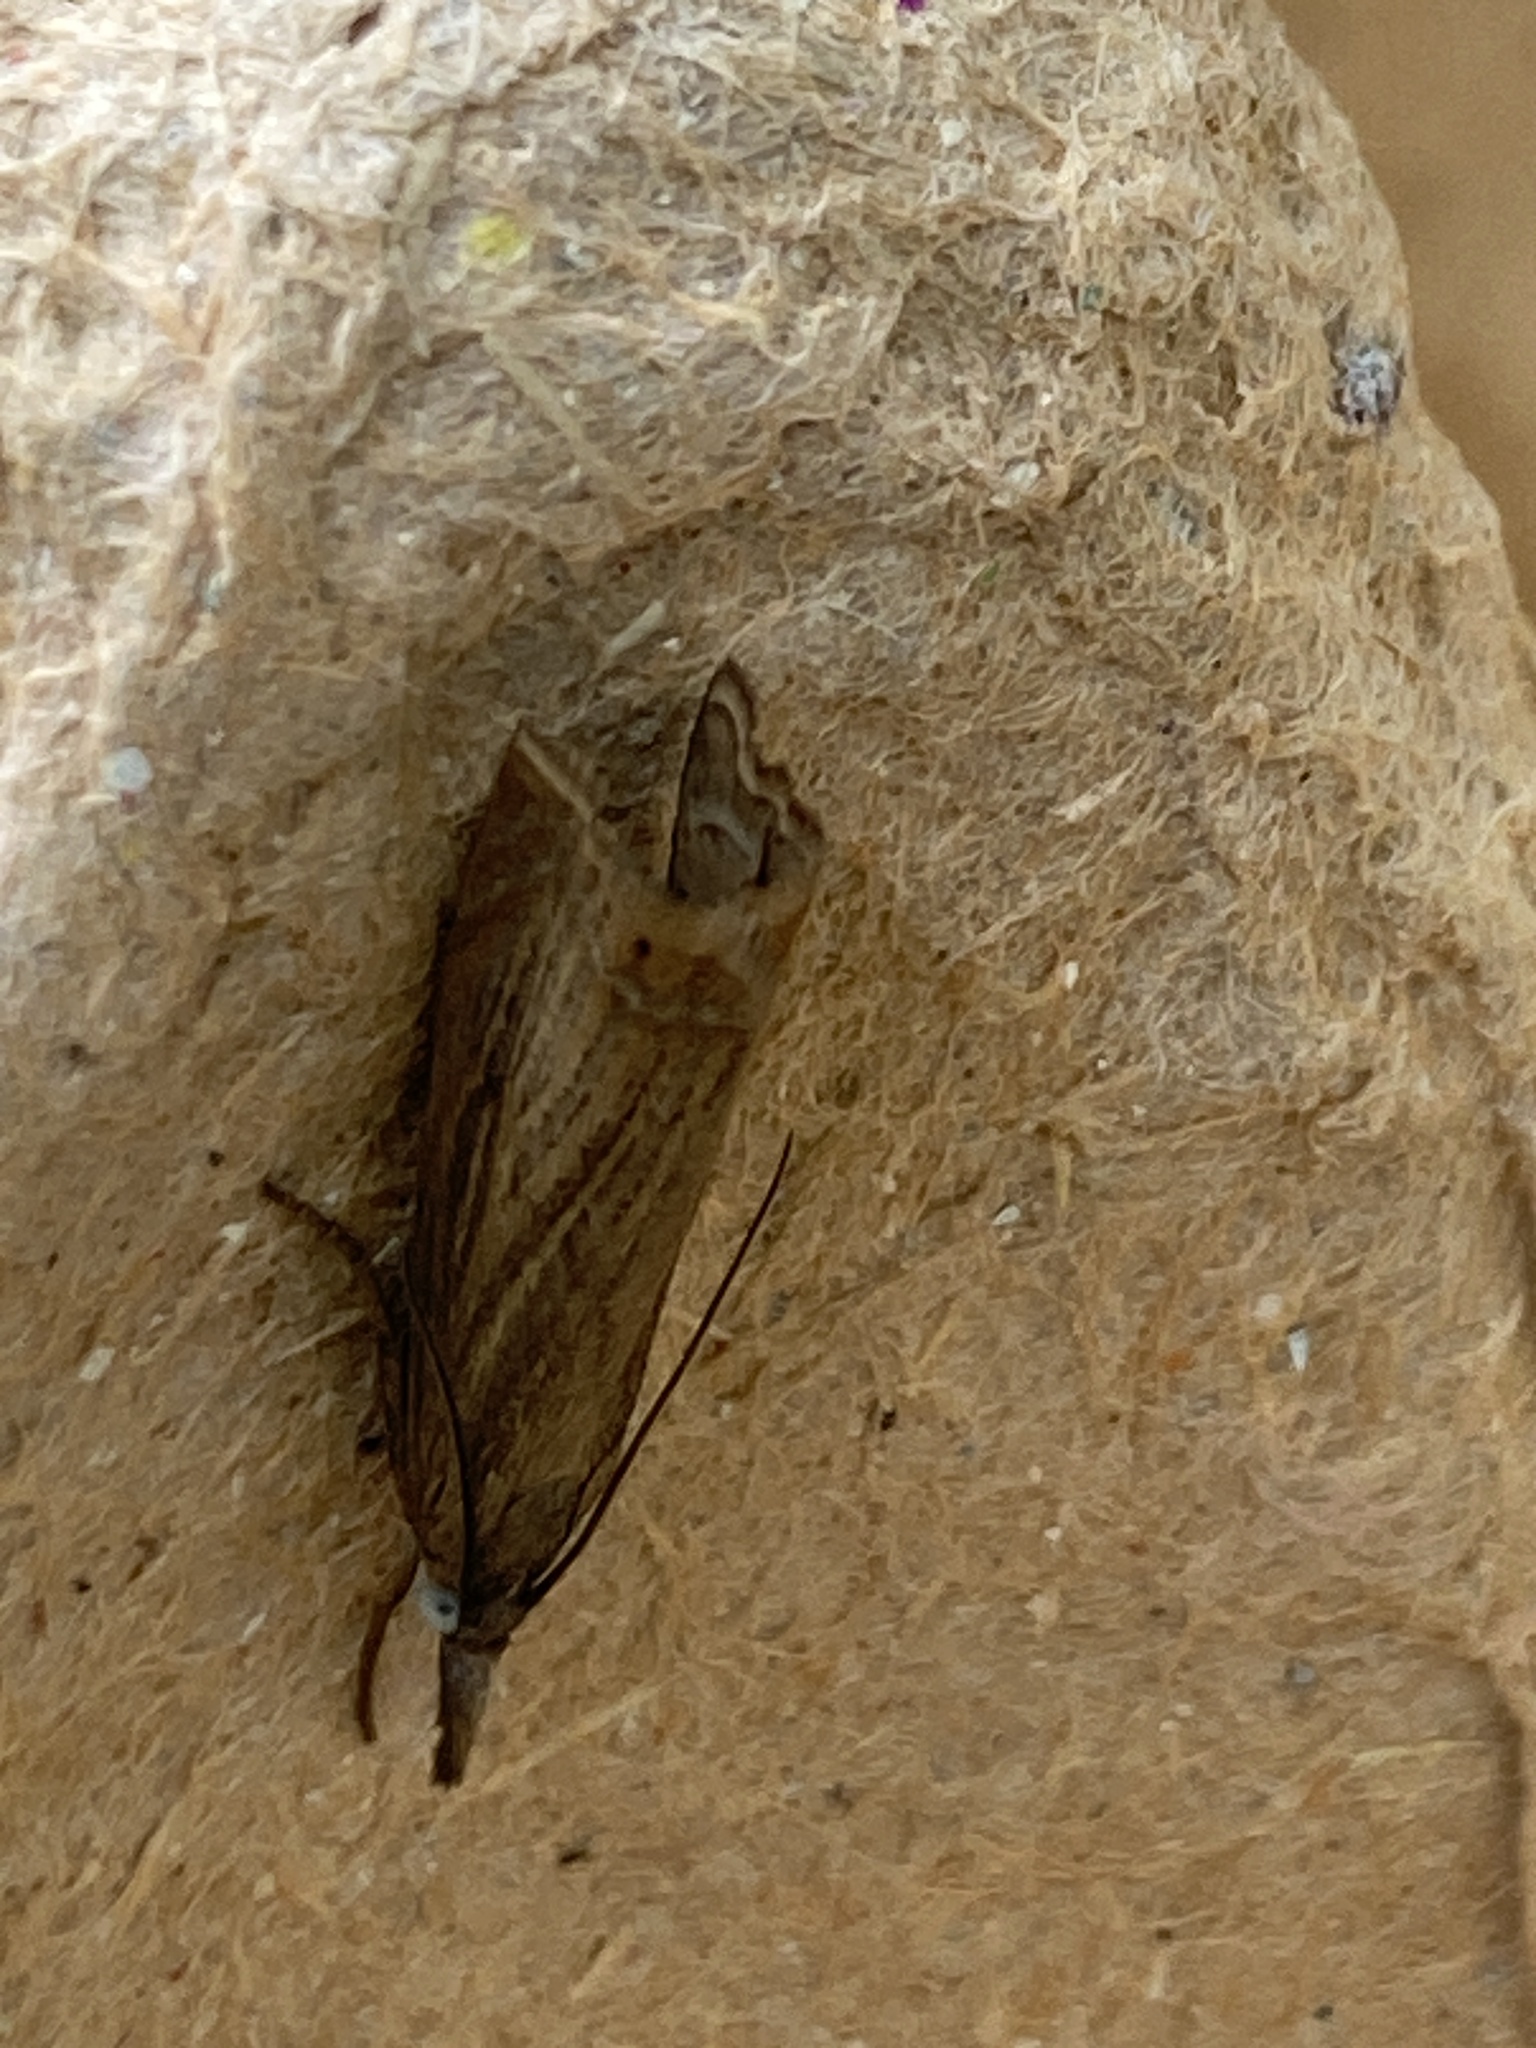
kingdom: Animalia
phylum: Arthropoda
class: Insecta
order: Lepidoptera
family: Crambidae
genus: Chrysoteuchia
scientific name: Chrysoteuchia culmella
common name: Garden grass-veneer
